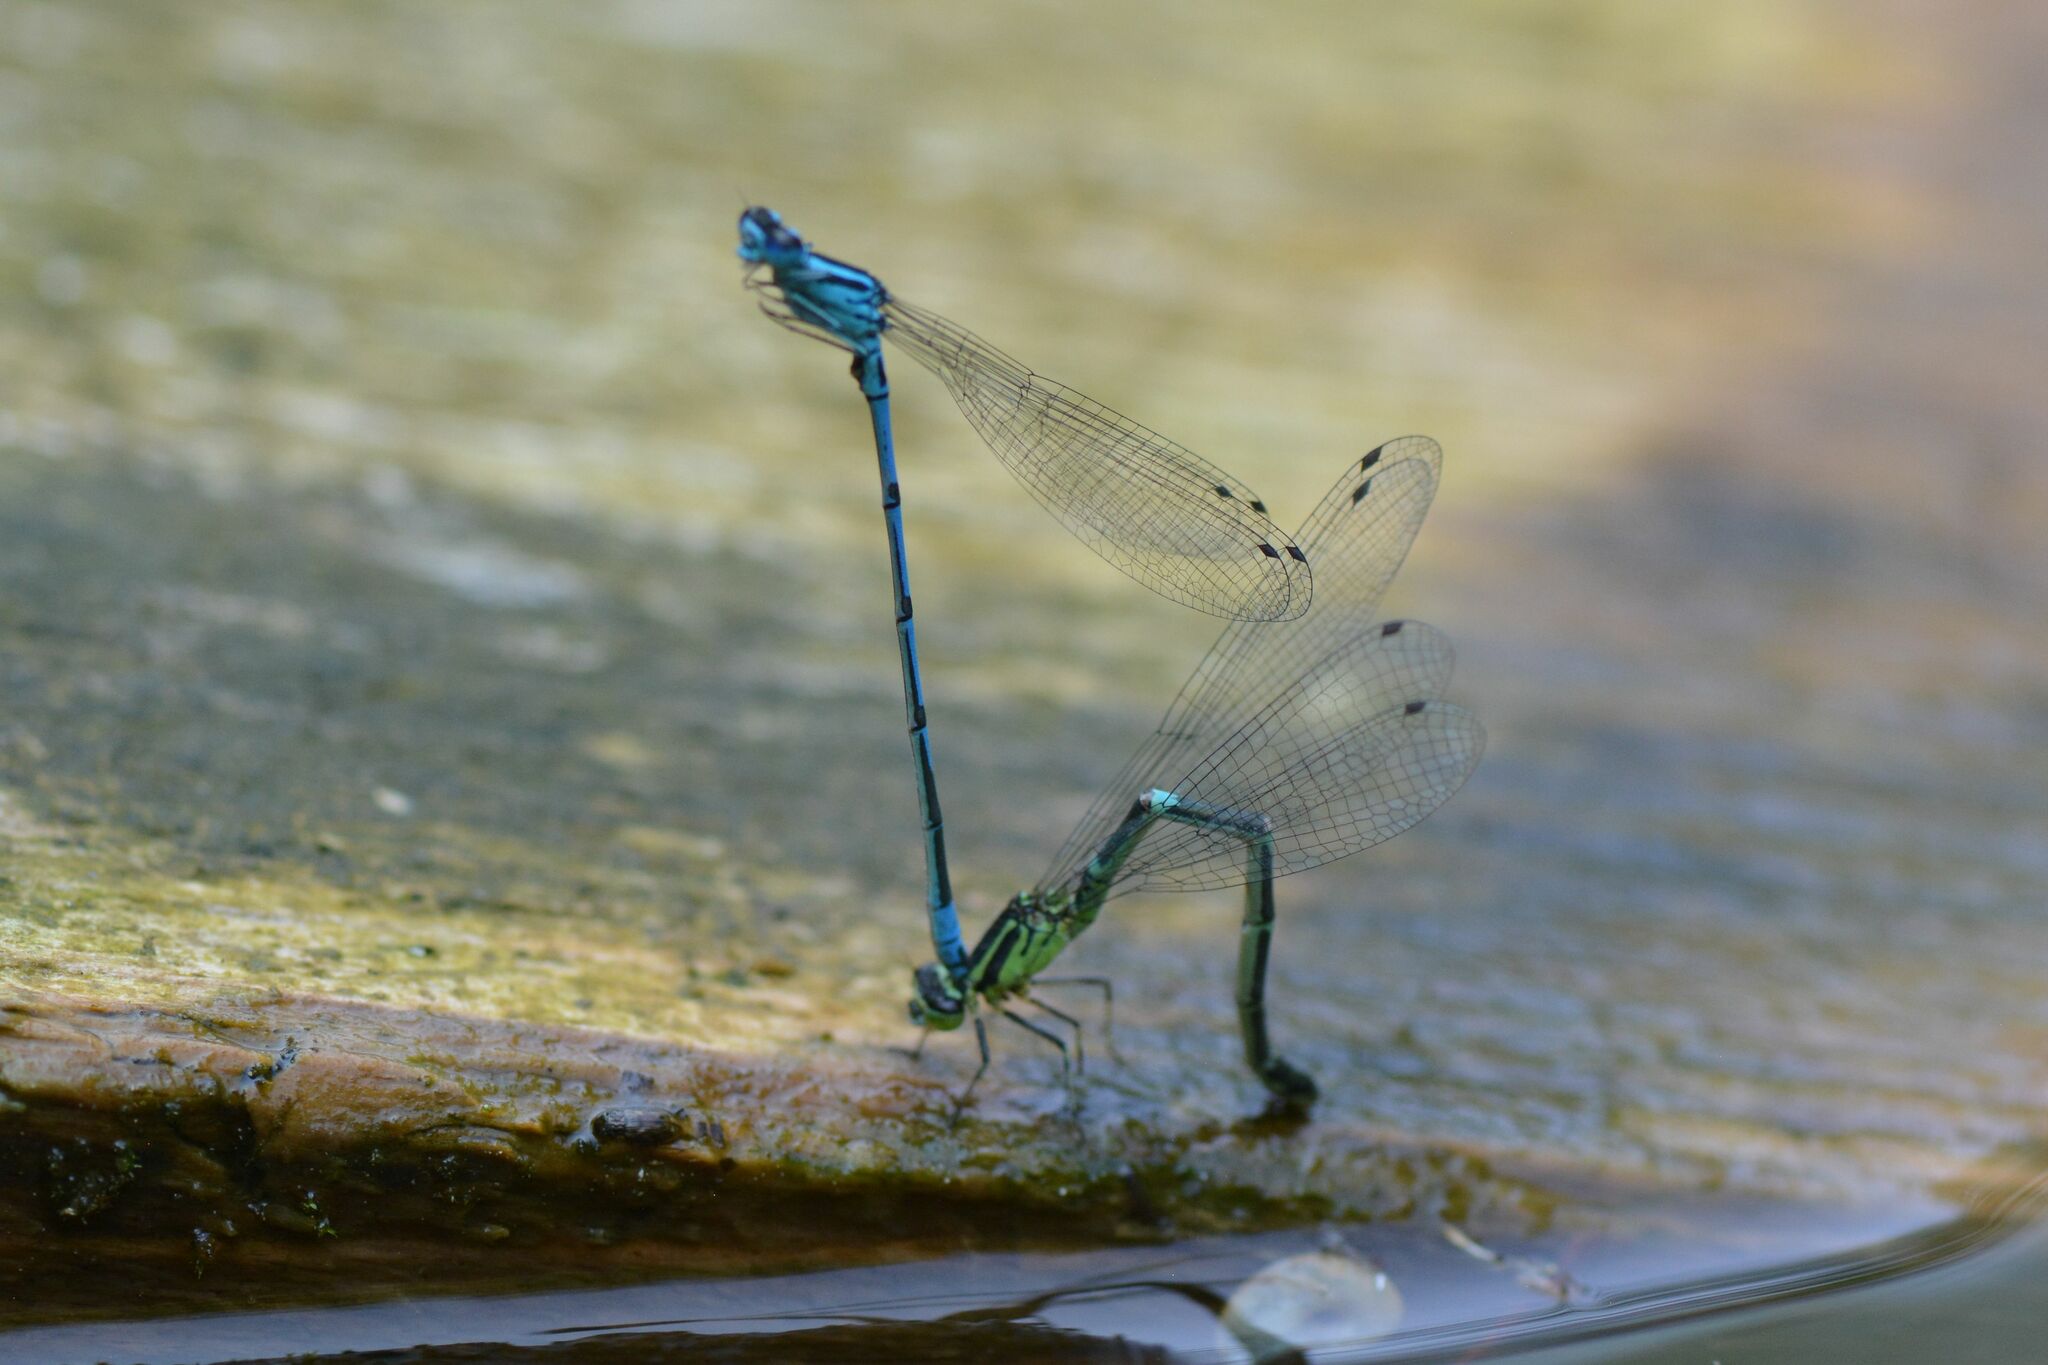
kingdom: Animalia
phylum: Arthropoda
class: Insecta
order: Odonata
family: Coenagrionidae
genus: Coenagrion
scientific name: Coenagrion puella
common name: Azure damselfly
